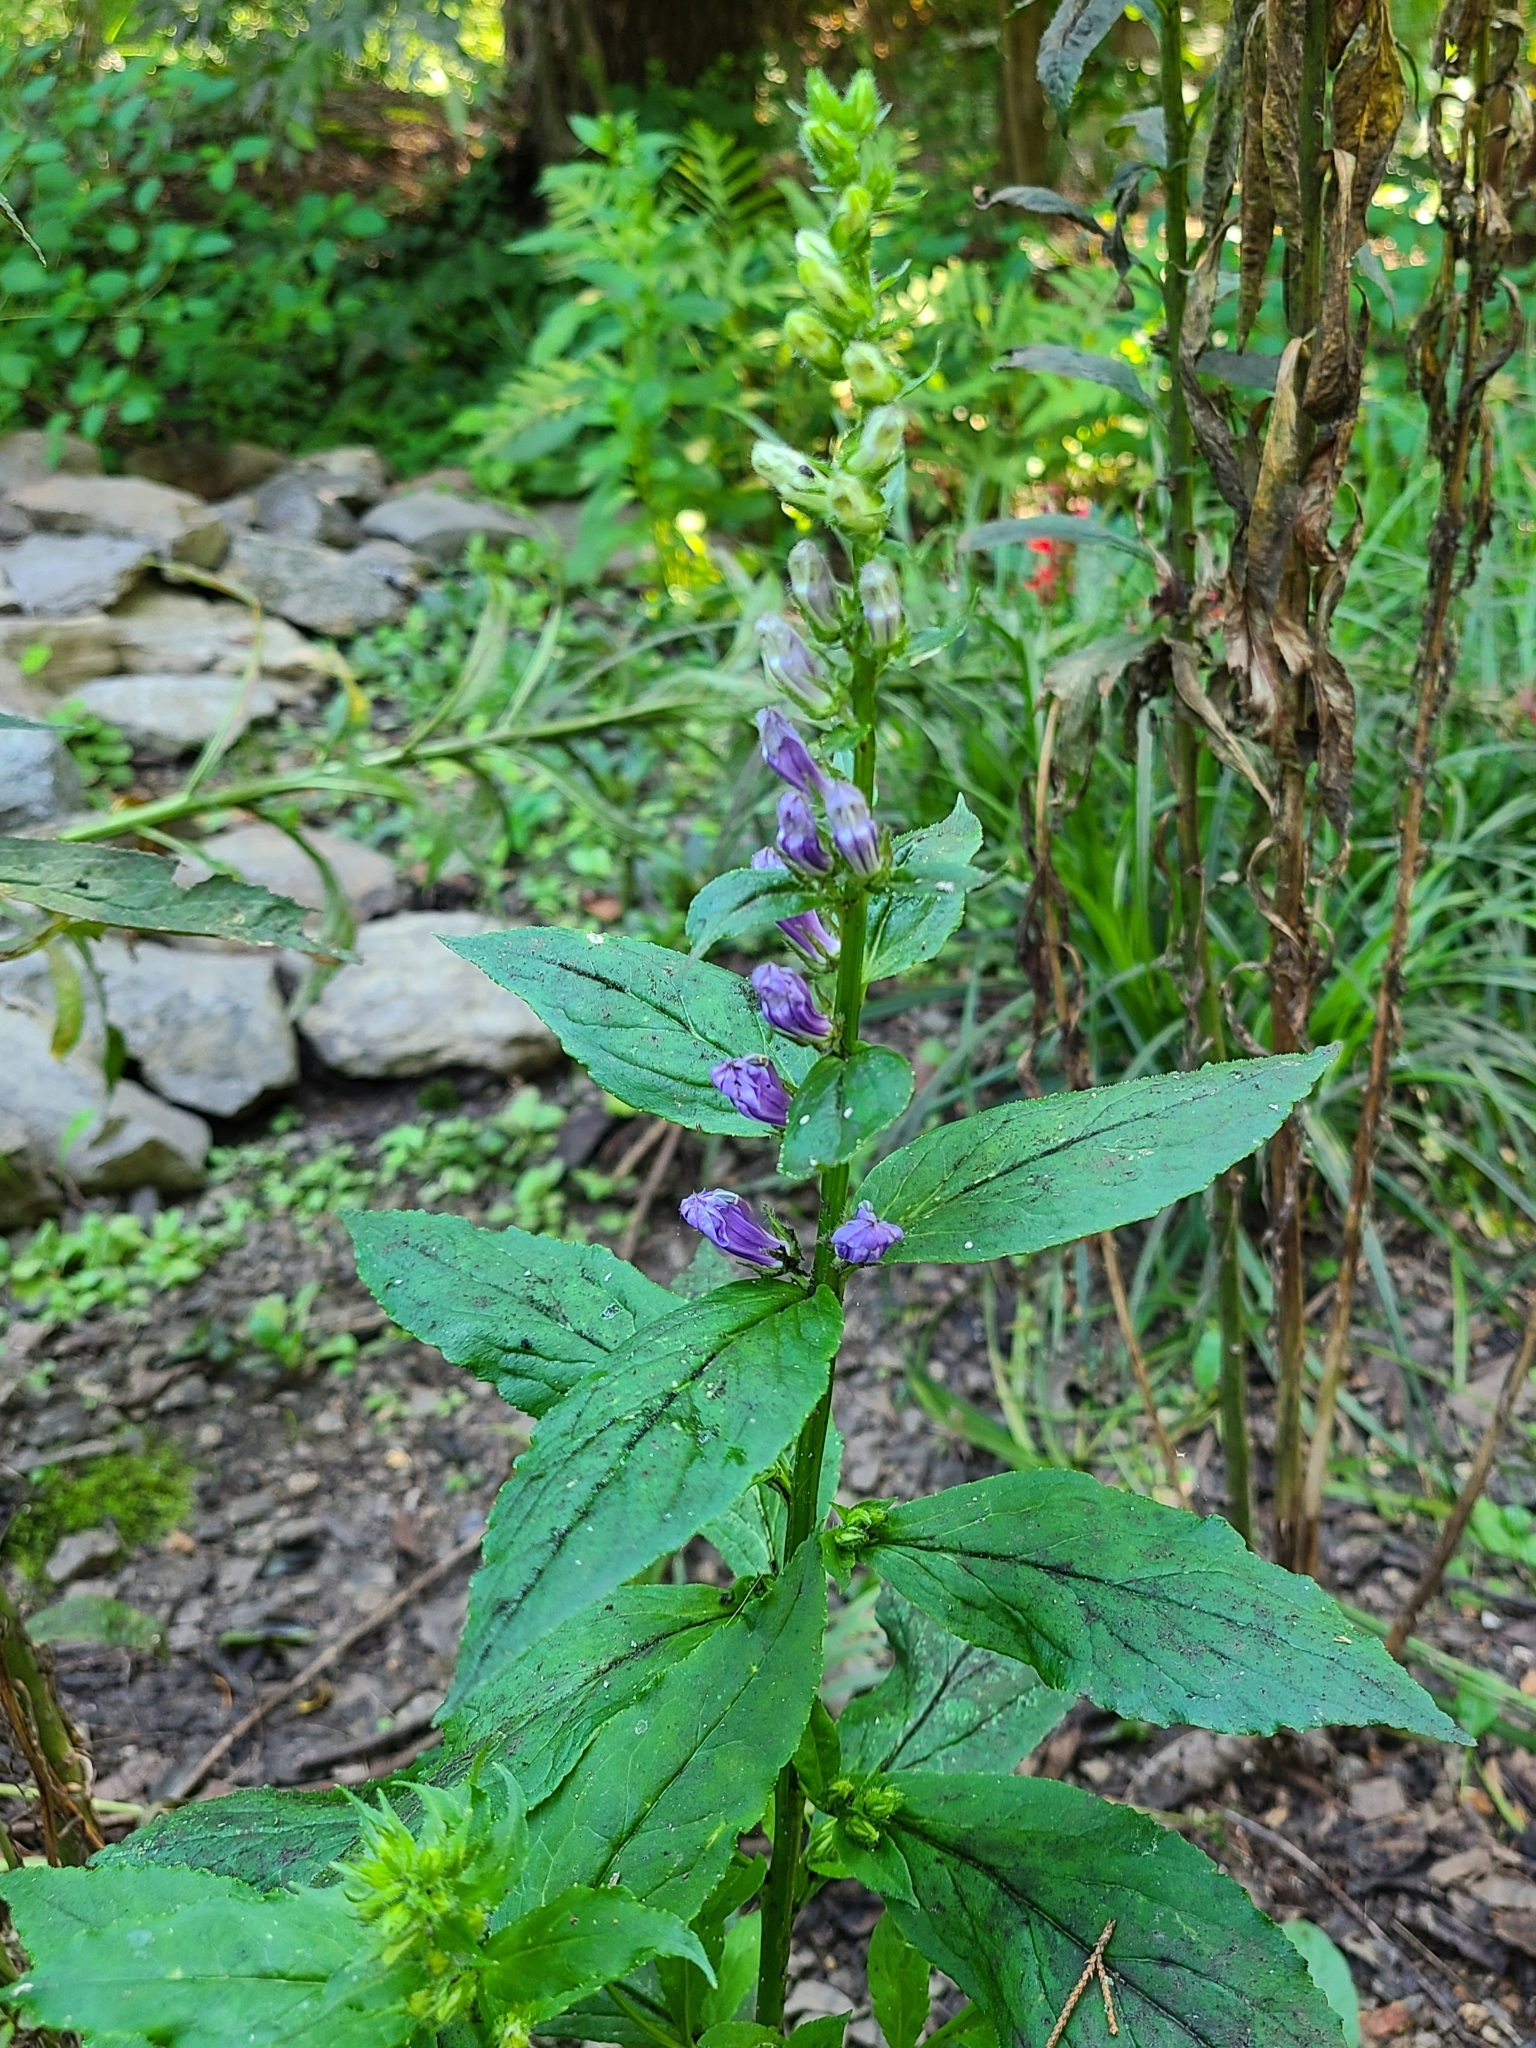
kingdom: Plantae
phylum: Tracheophyta
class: Magnoliopsida
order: Asterales
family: Campanulaceae
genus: Lobelia
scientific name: Lobelia siphilitica
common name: Great lobelia
